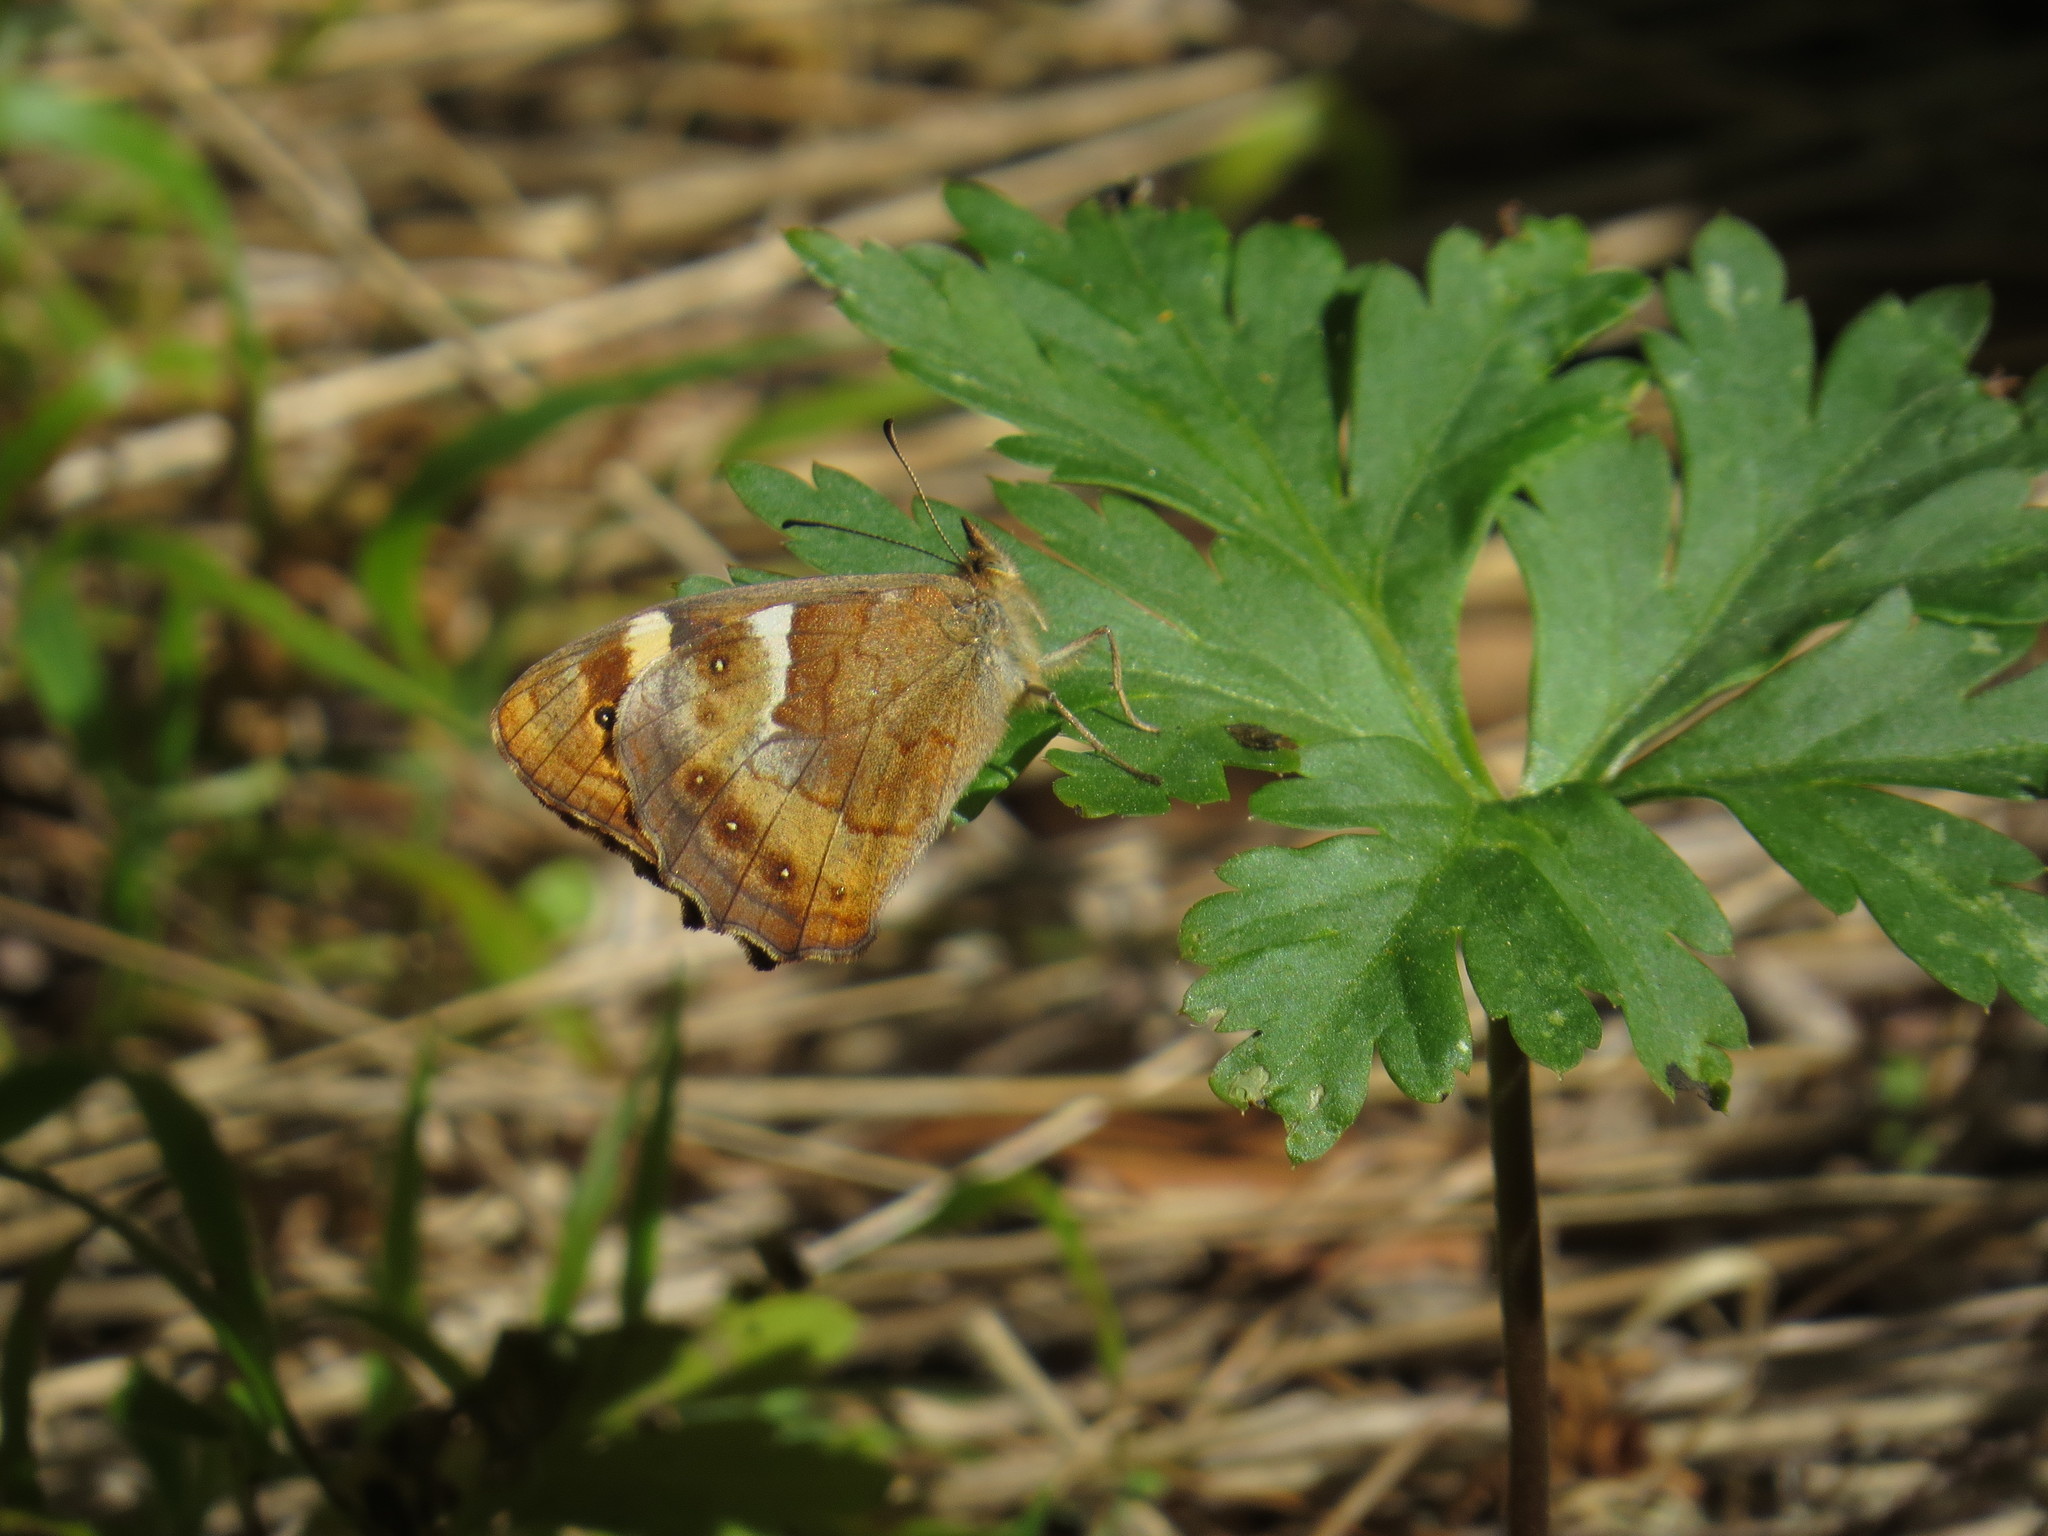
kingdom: Animalia
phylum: Arthropoda
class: Insecta
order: Lepidoptera
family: Nymphalidae
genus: Pararge
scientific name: Pararge aegeria
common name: Speckled wood
